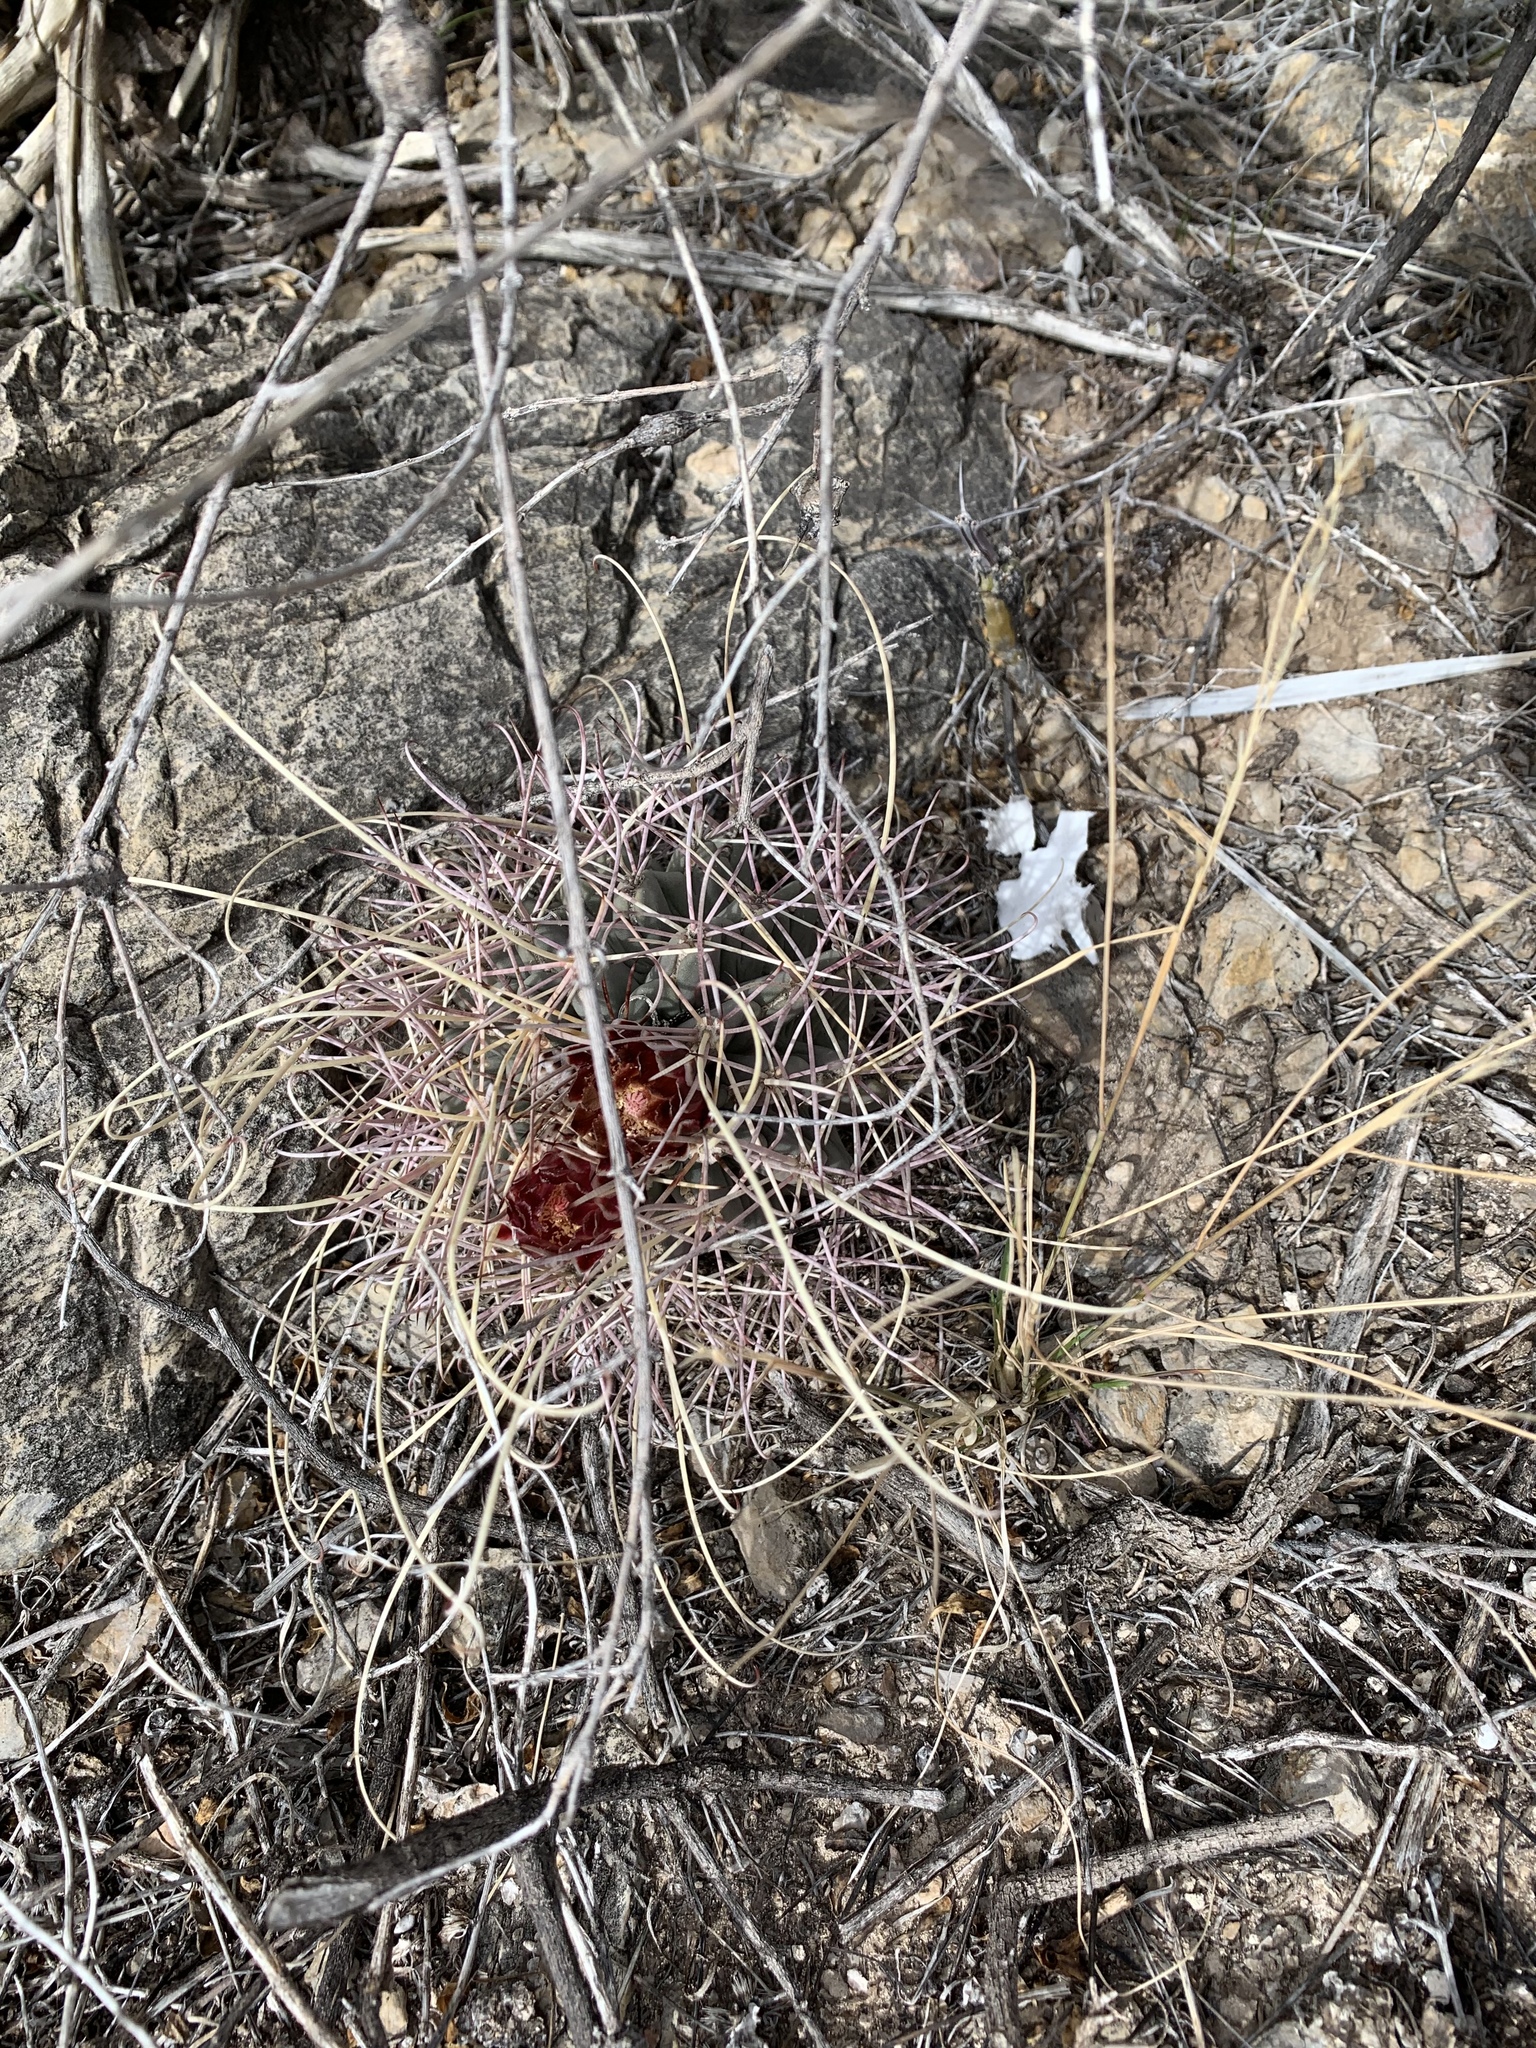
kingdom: Plantae
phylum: Tracheophyta
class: Magnoliopsida
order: Caryophyllales
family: Cactaceae
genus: Ferocactus
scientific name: Ferocactus uncinatus
